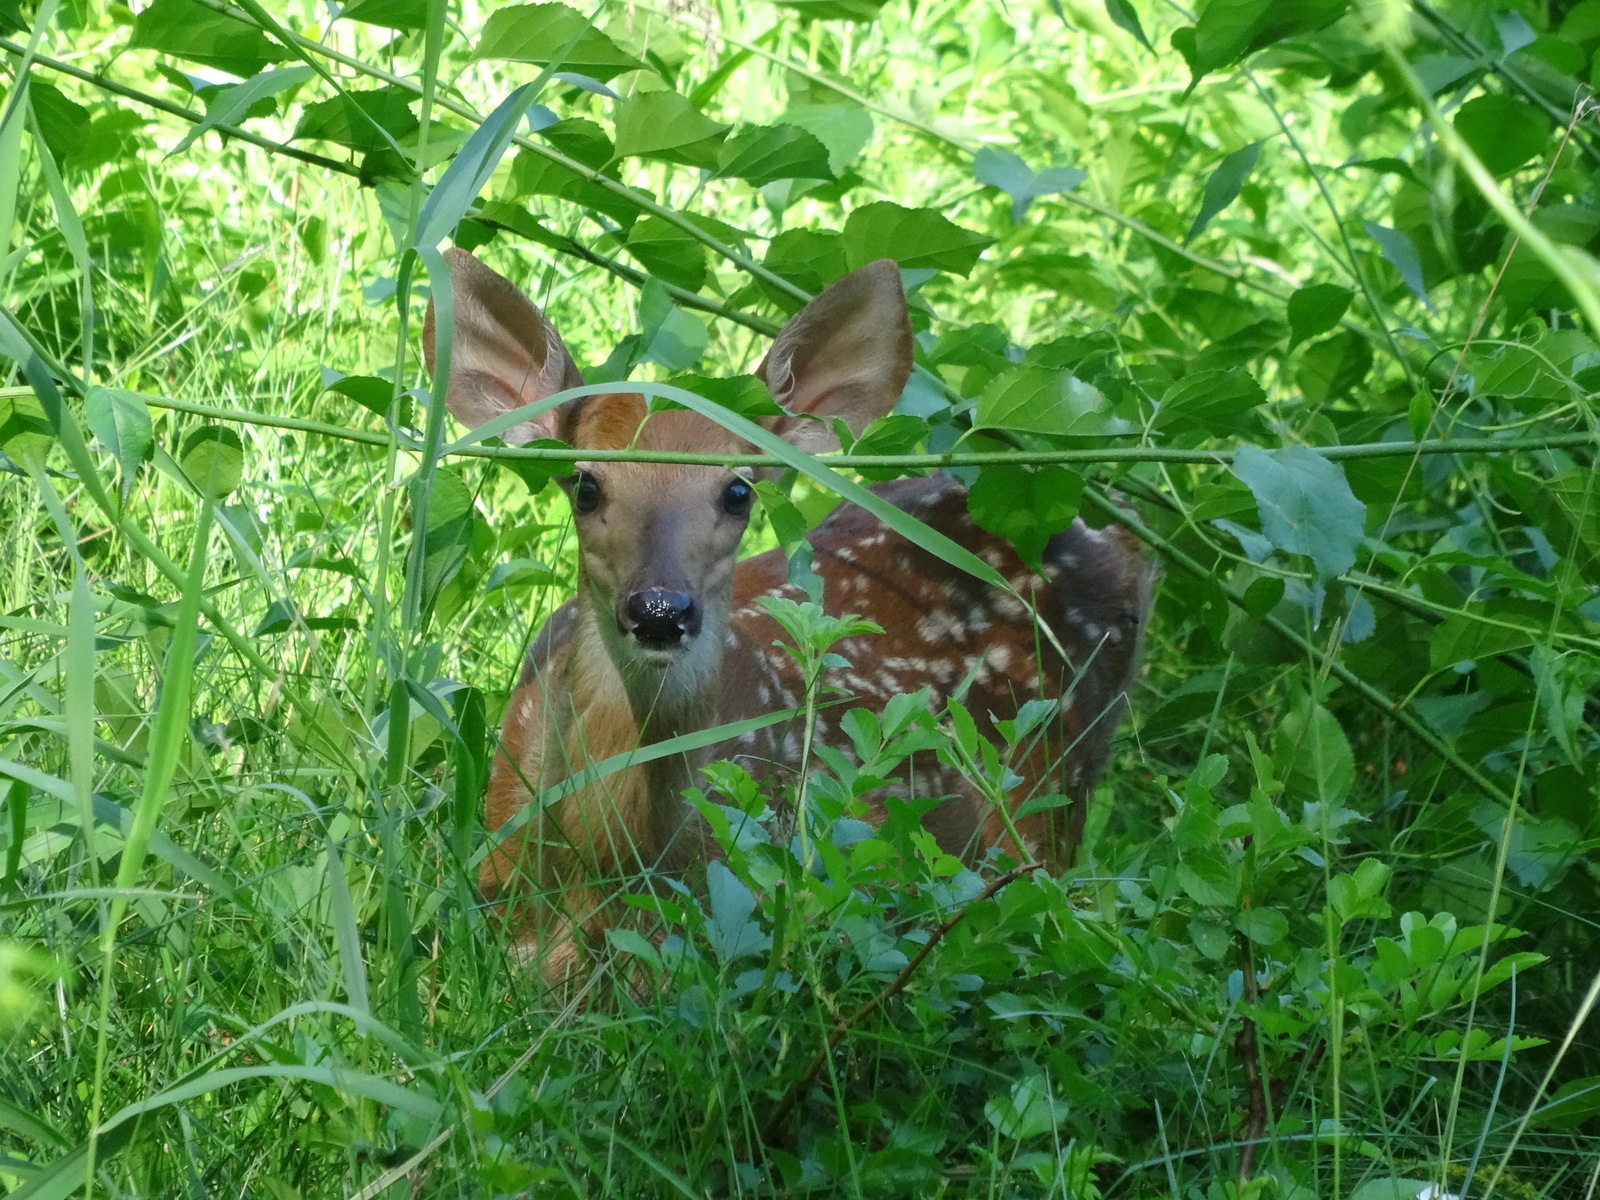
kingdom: Animalia
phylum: Chordata
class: Mammalia
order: Artiodactyla
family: Cervidae
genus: Odocoileus
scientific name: Odocoileus virginianus
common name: White-tailed deer
